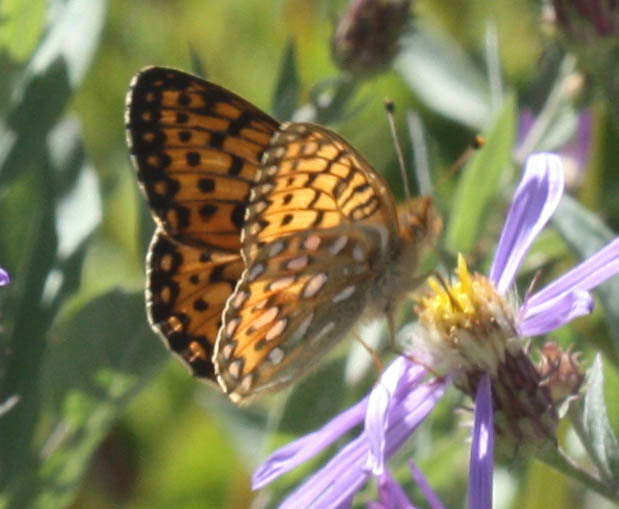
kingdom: Animalia
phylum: Arthropoda
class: Insecta
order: Lepidoptera
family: Nymphalidae
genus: Speyeria
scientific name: Speyeria mormonia
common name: Mormon fritillary
